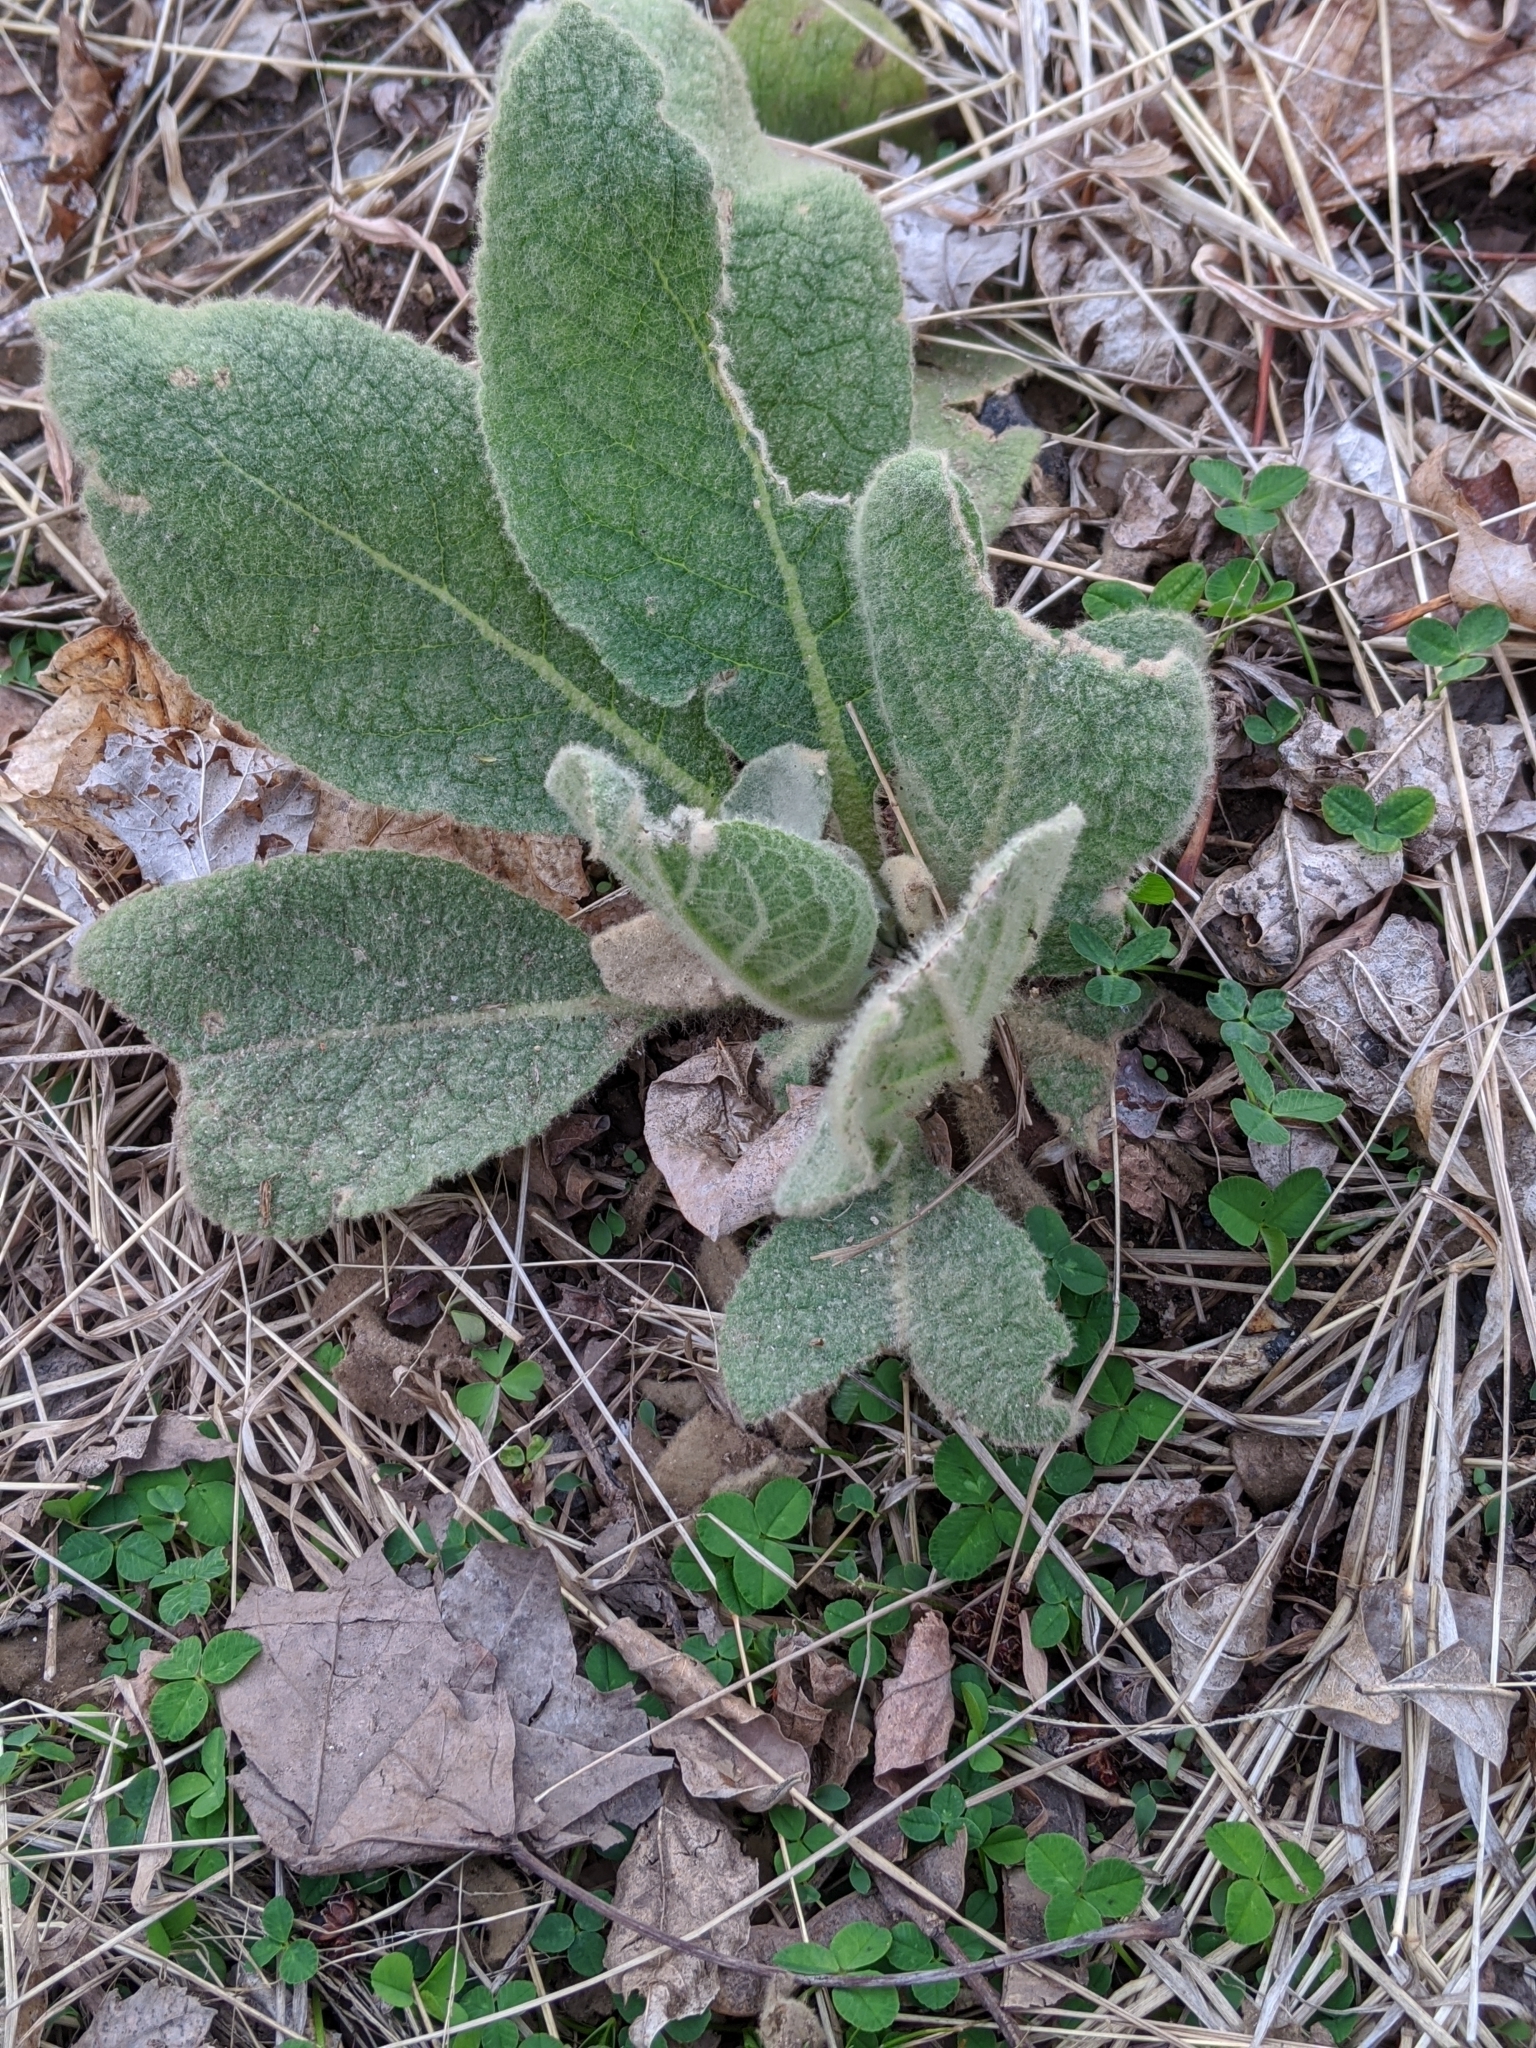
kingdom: Plantae
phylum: Tracheophyta
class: Magnoliopsida
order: Lamiales
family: Scrophulariaceae
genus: Verbascum
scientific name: Verbascum thapsus
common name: Common mullein
